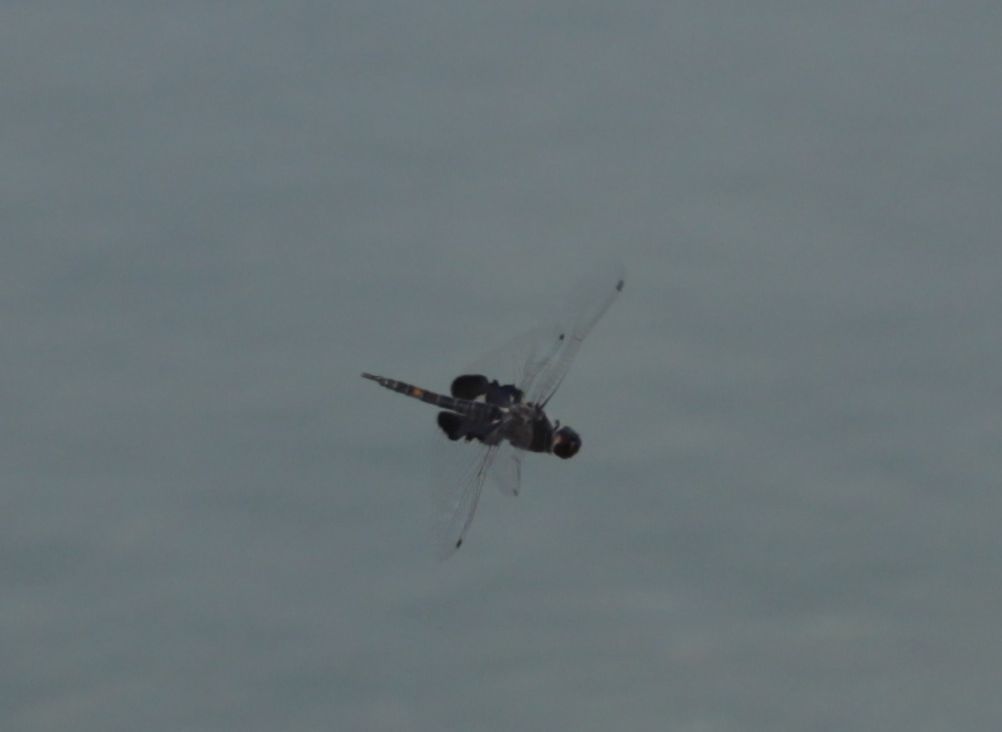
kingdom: Animalia
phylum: Arthropoda
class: Insecta
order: Odonata
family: Libellulidae
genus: Tramea
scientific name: Tramea lacerata
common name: Black saddlebags
